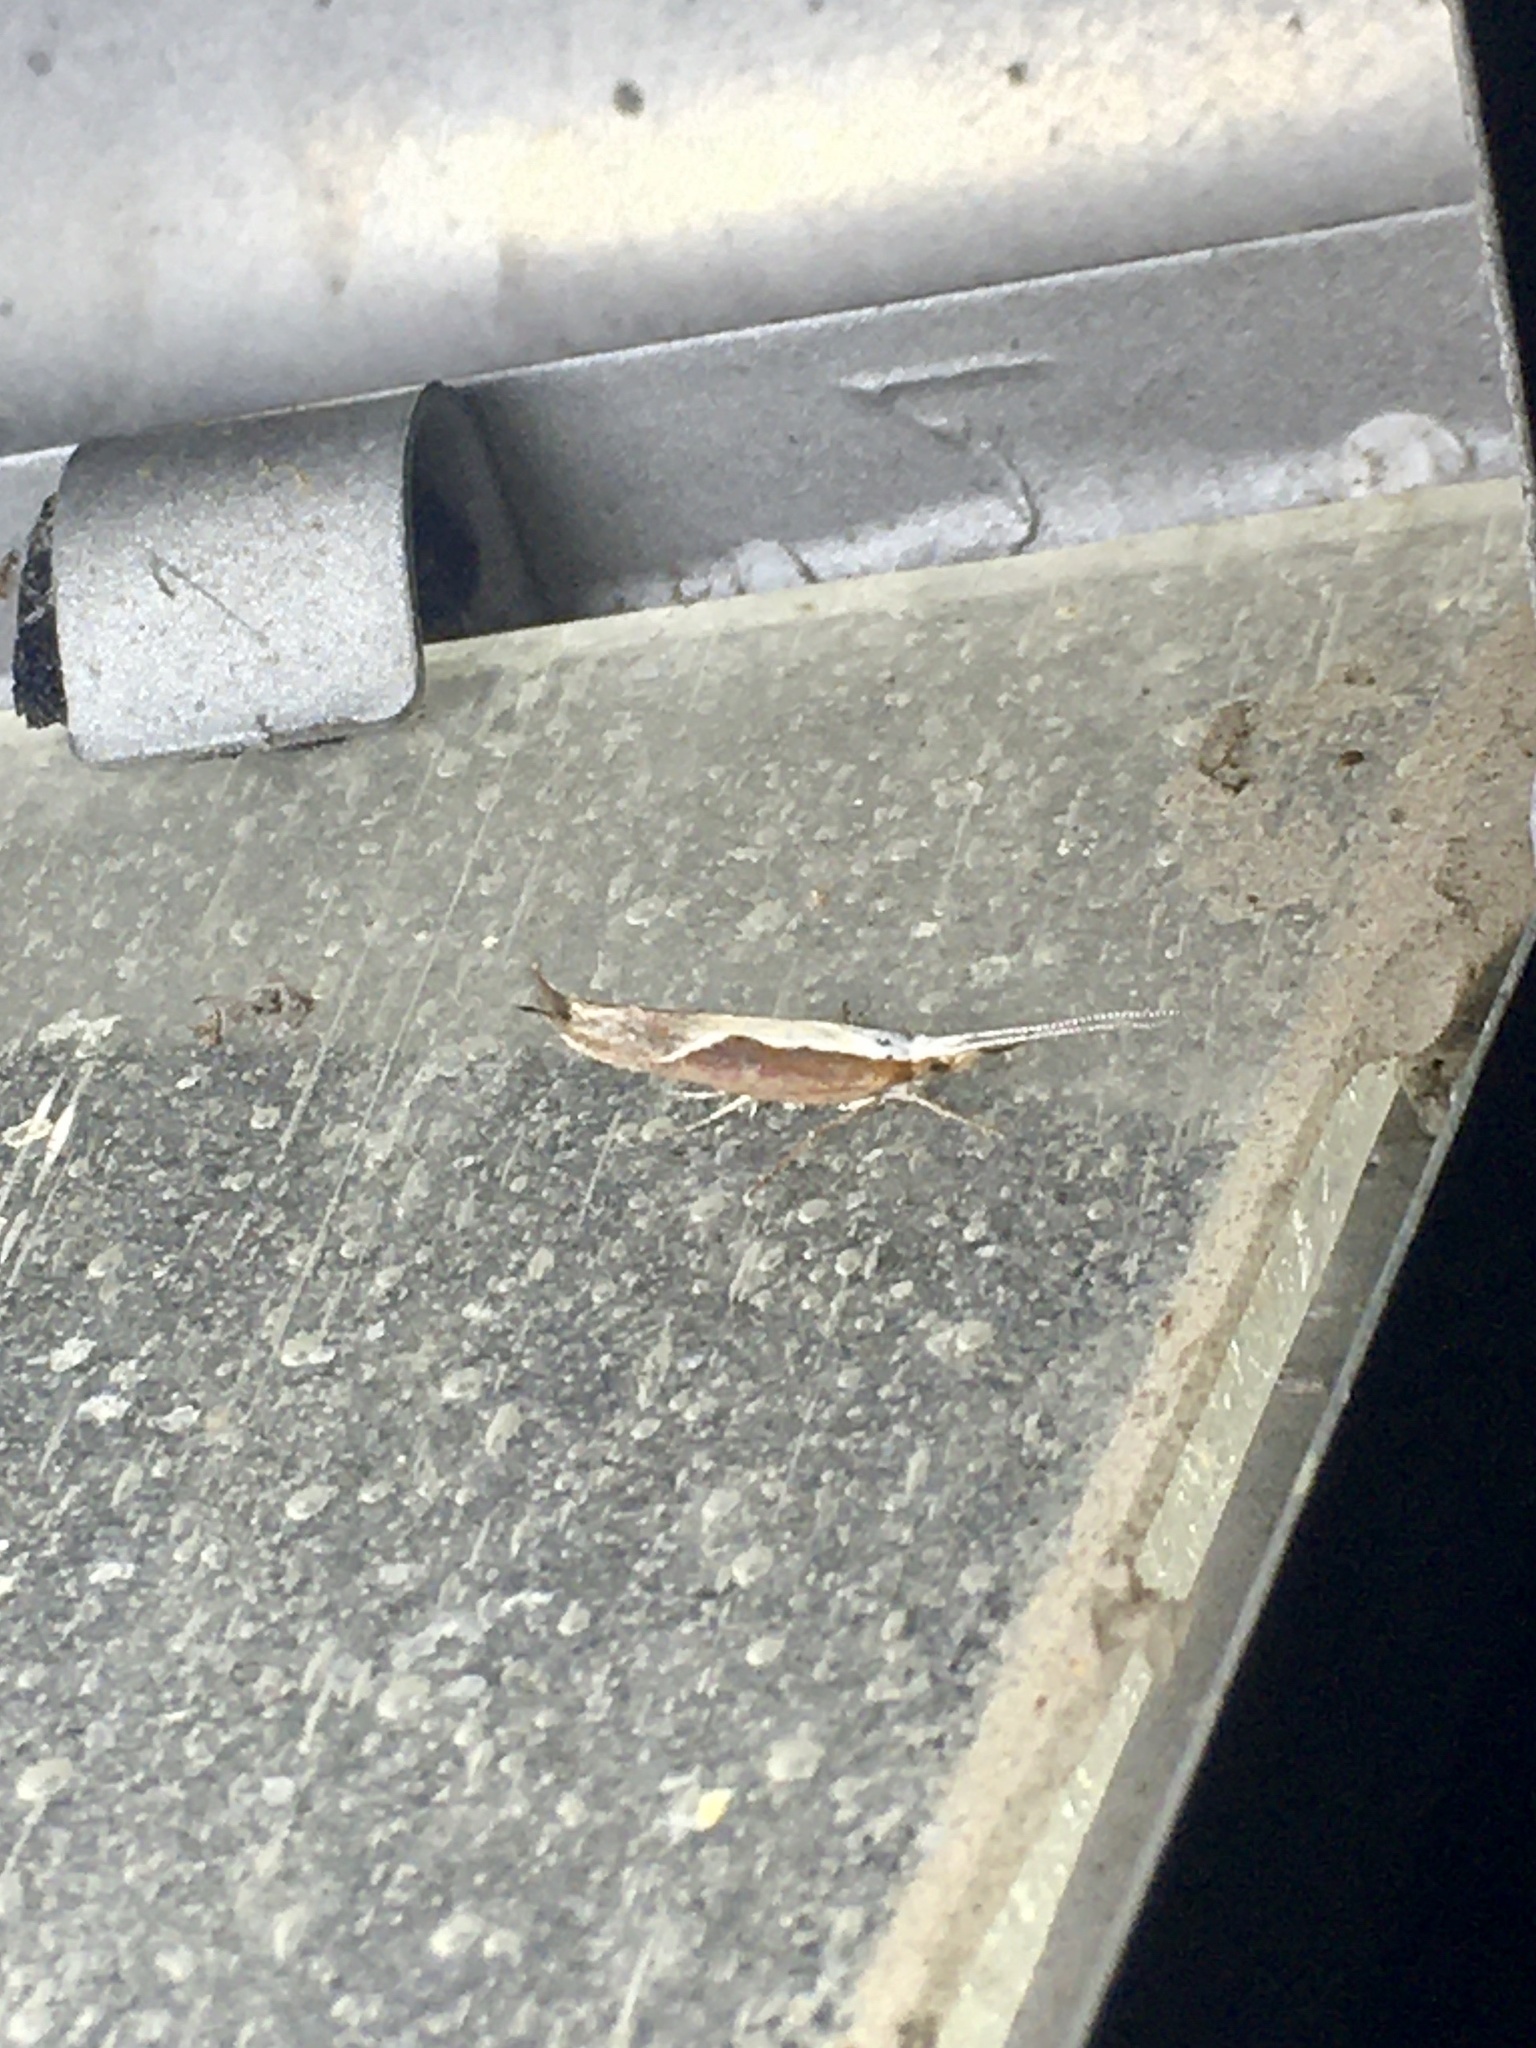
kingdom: Animalia
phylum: Arthropoda
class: Insecta
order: Lepidoptera
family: Ypsolophidae
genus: Ypsolopha
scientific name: Ypsolopha dentella
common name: Honeysuckle moth
